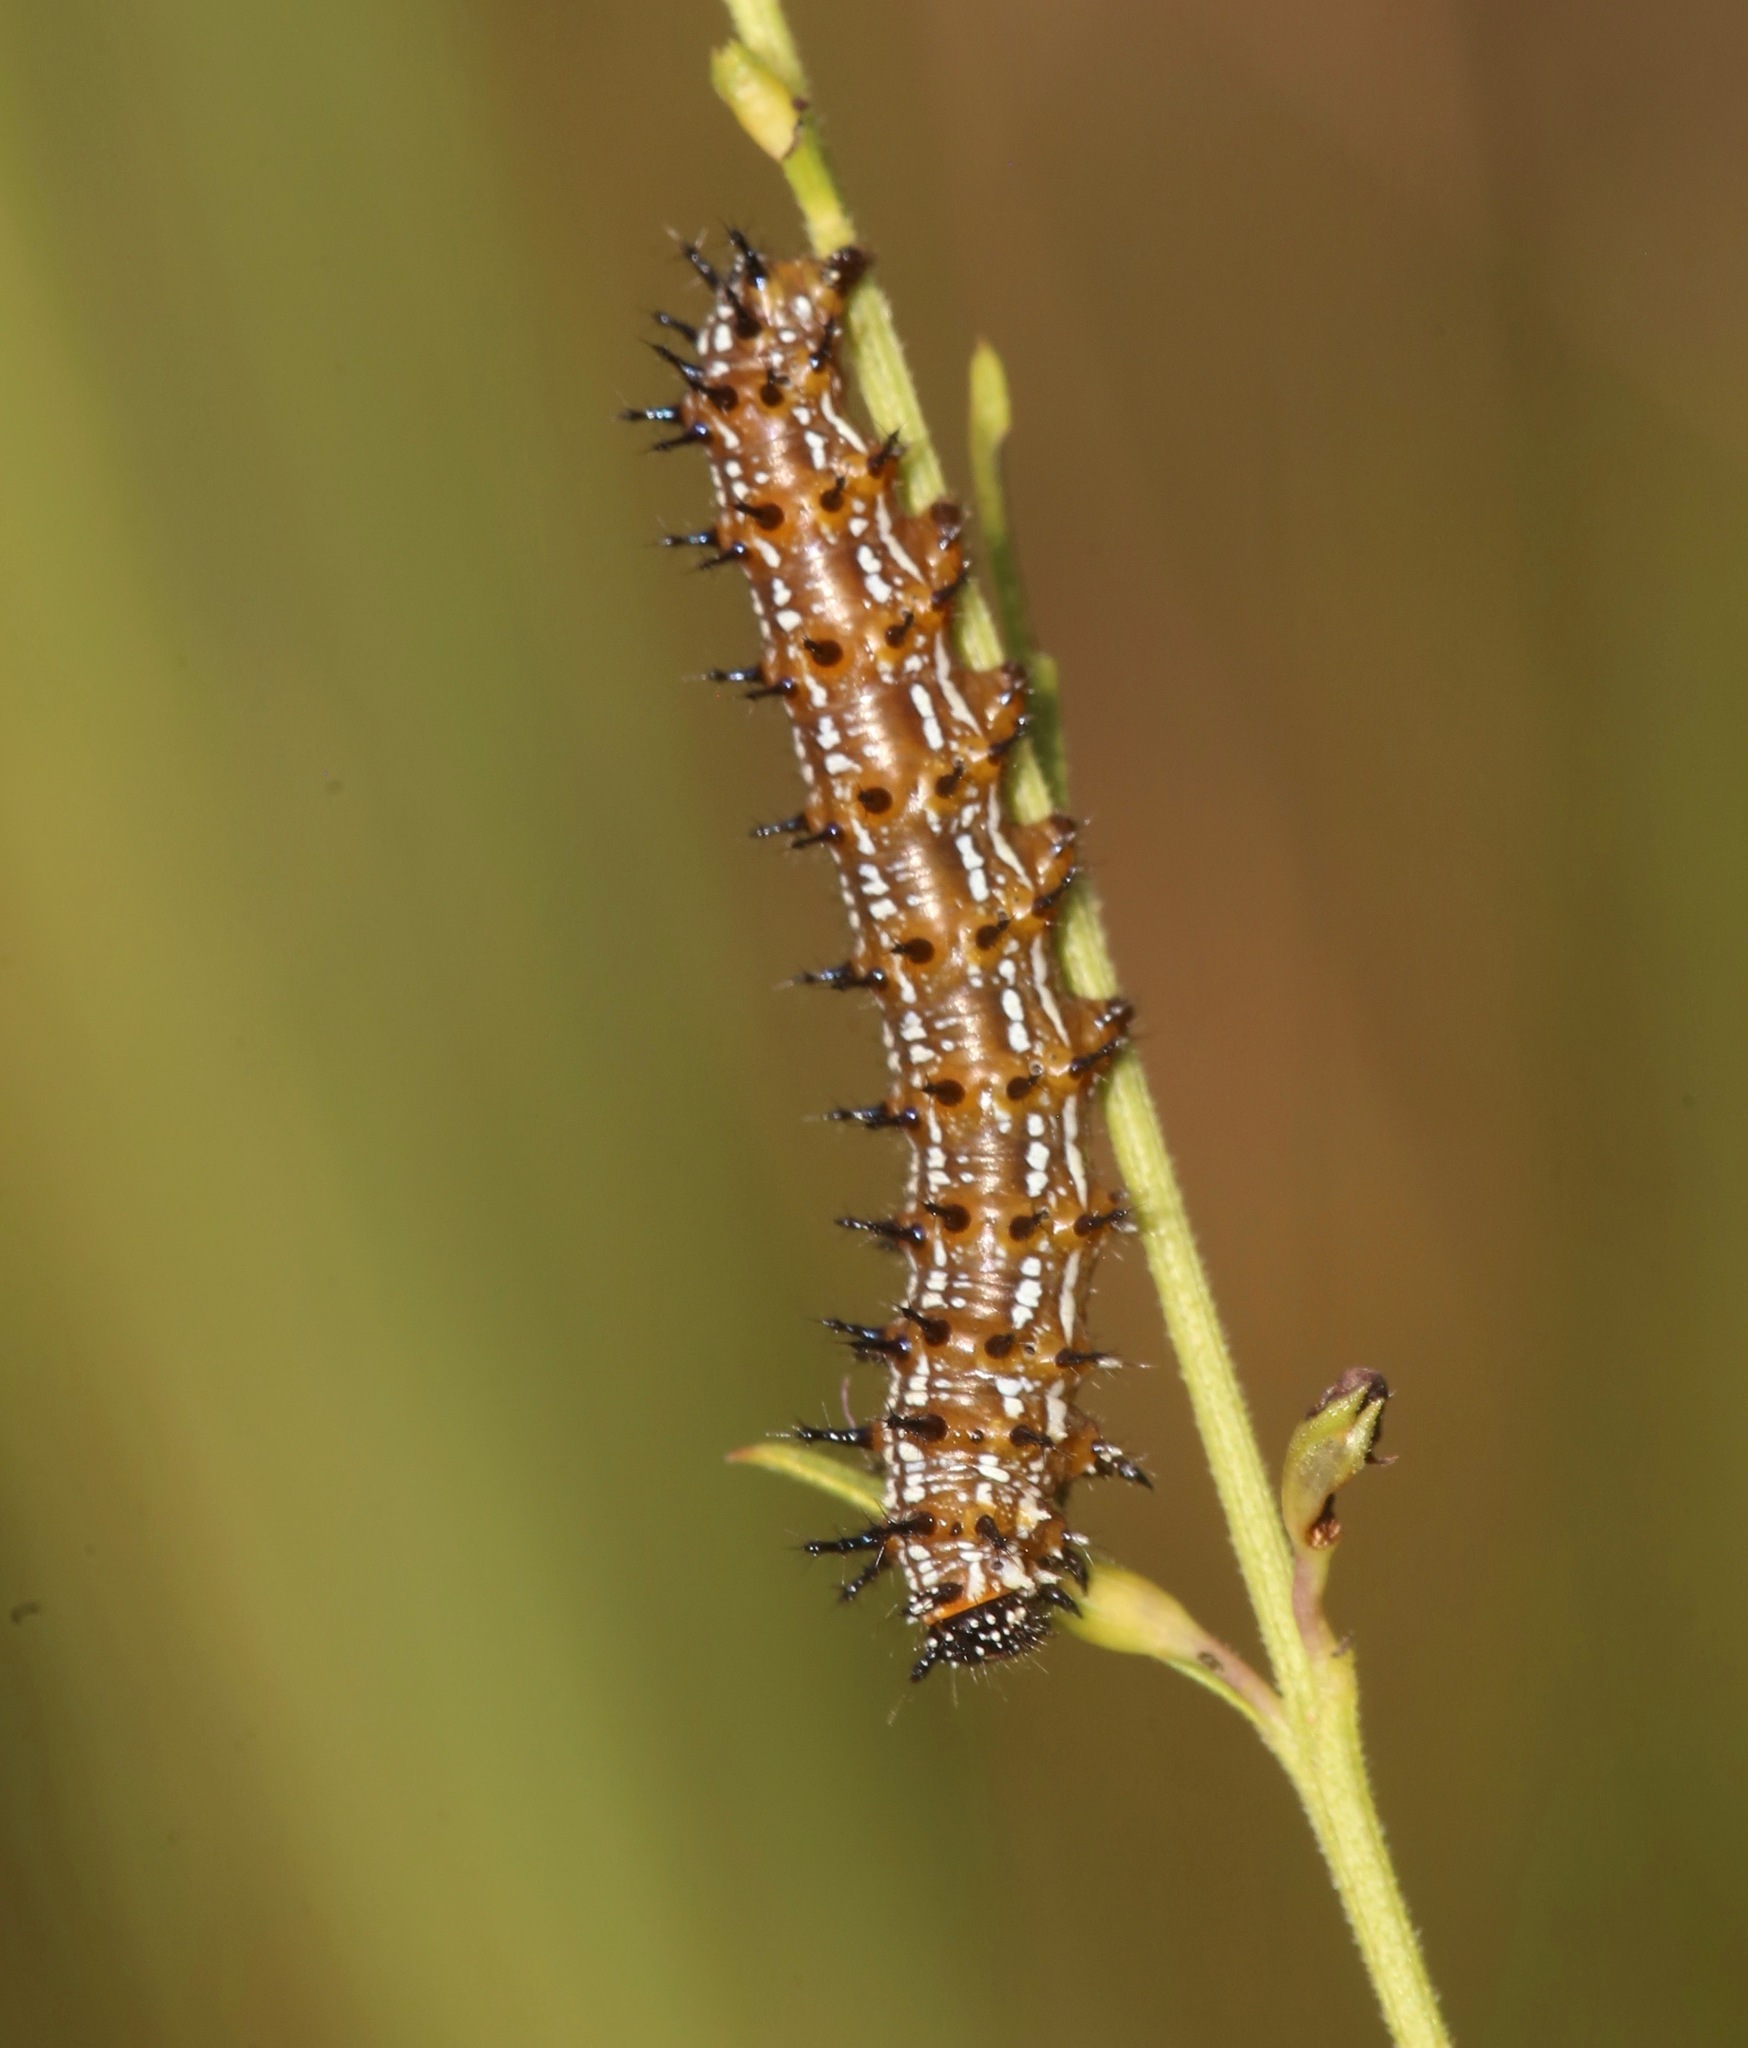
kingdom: Animalia
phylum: Arthropoda
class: Insecta
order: Lepidoptera
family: Nymphalidae
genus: Junonia
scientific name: Junonia coenia
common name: Common buckeye
